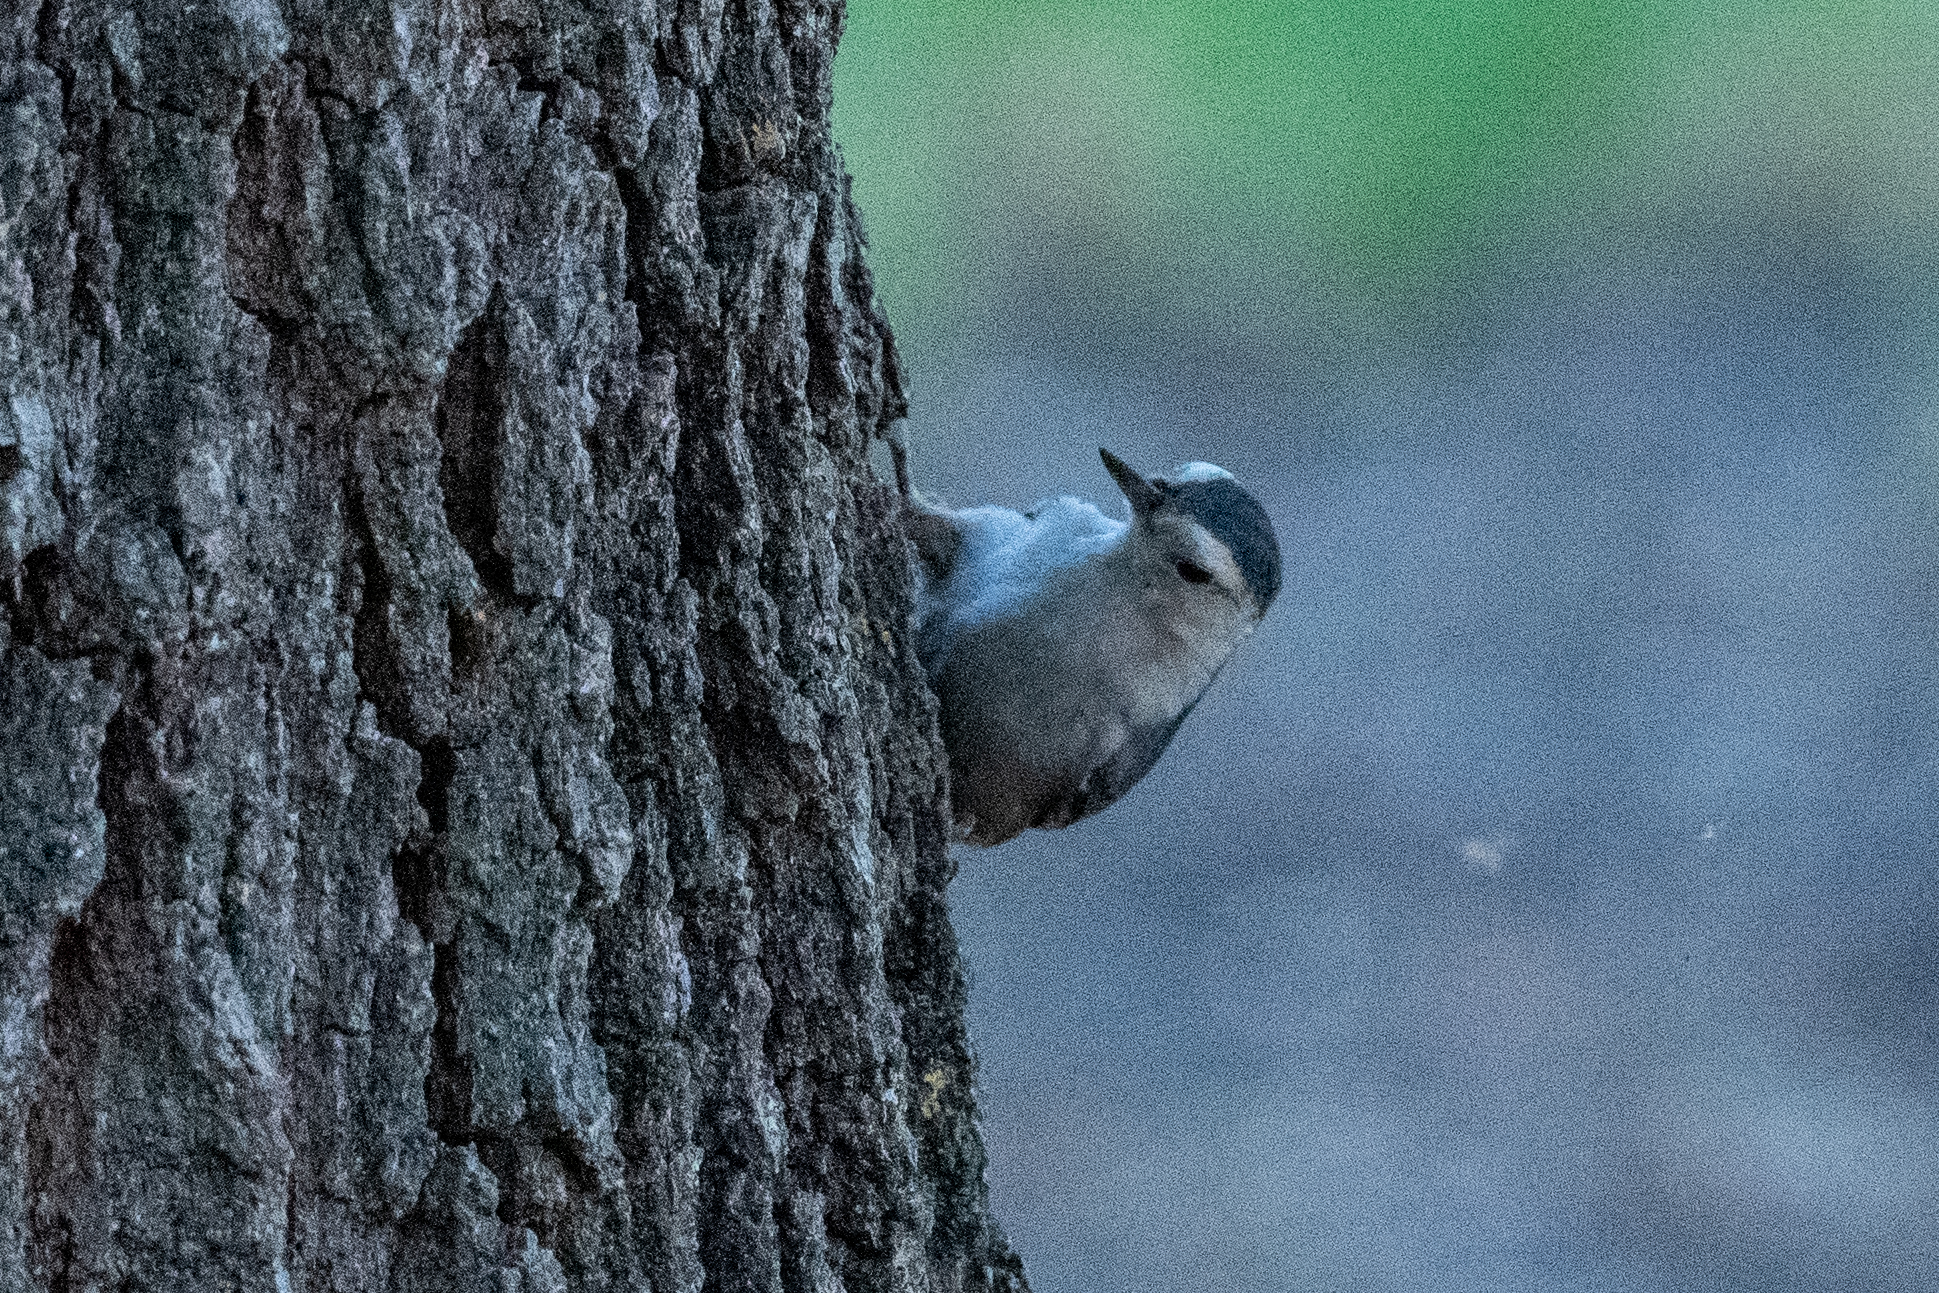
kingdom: Animalia
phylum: Chordata
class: Aves
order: Passeriformes
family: Sittidae
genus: Sitta
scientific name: Sitta carolinensis
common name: White-breasted nuthatch
